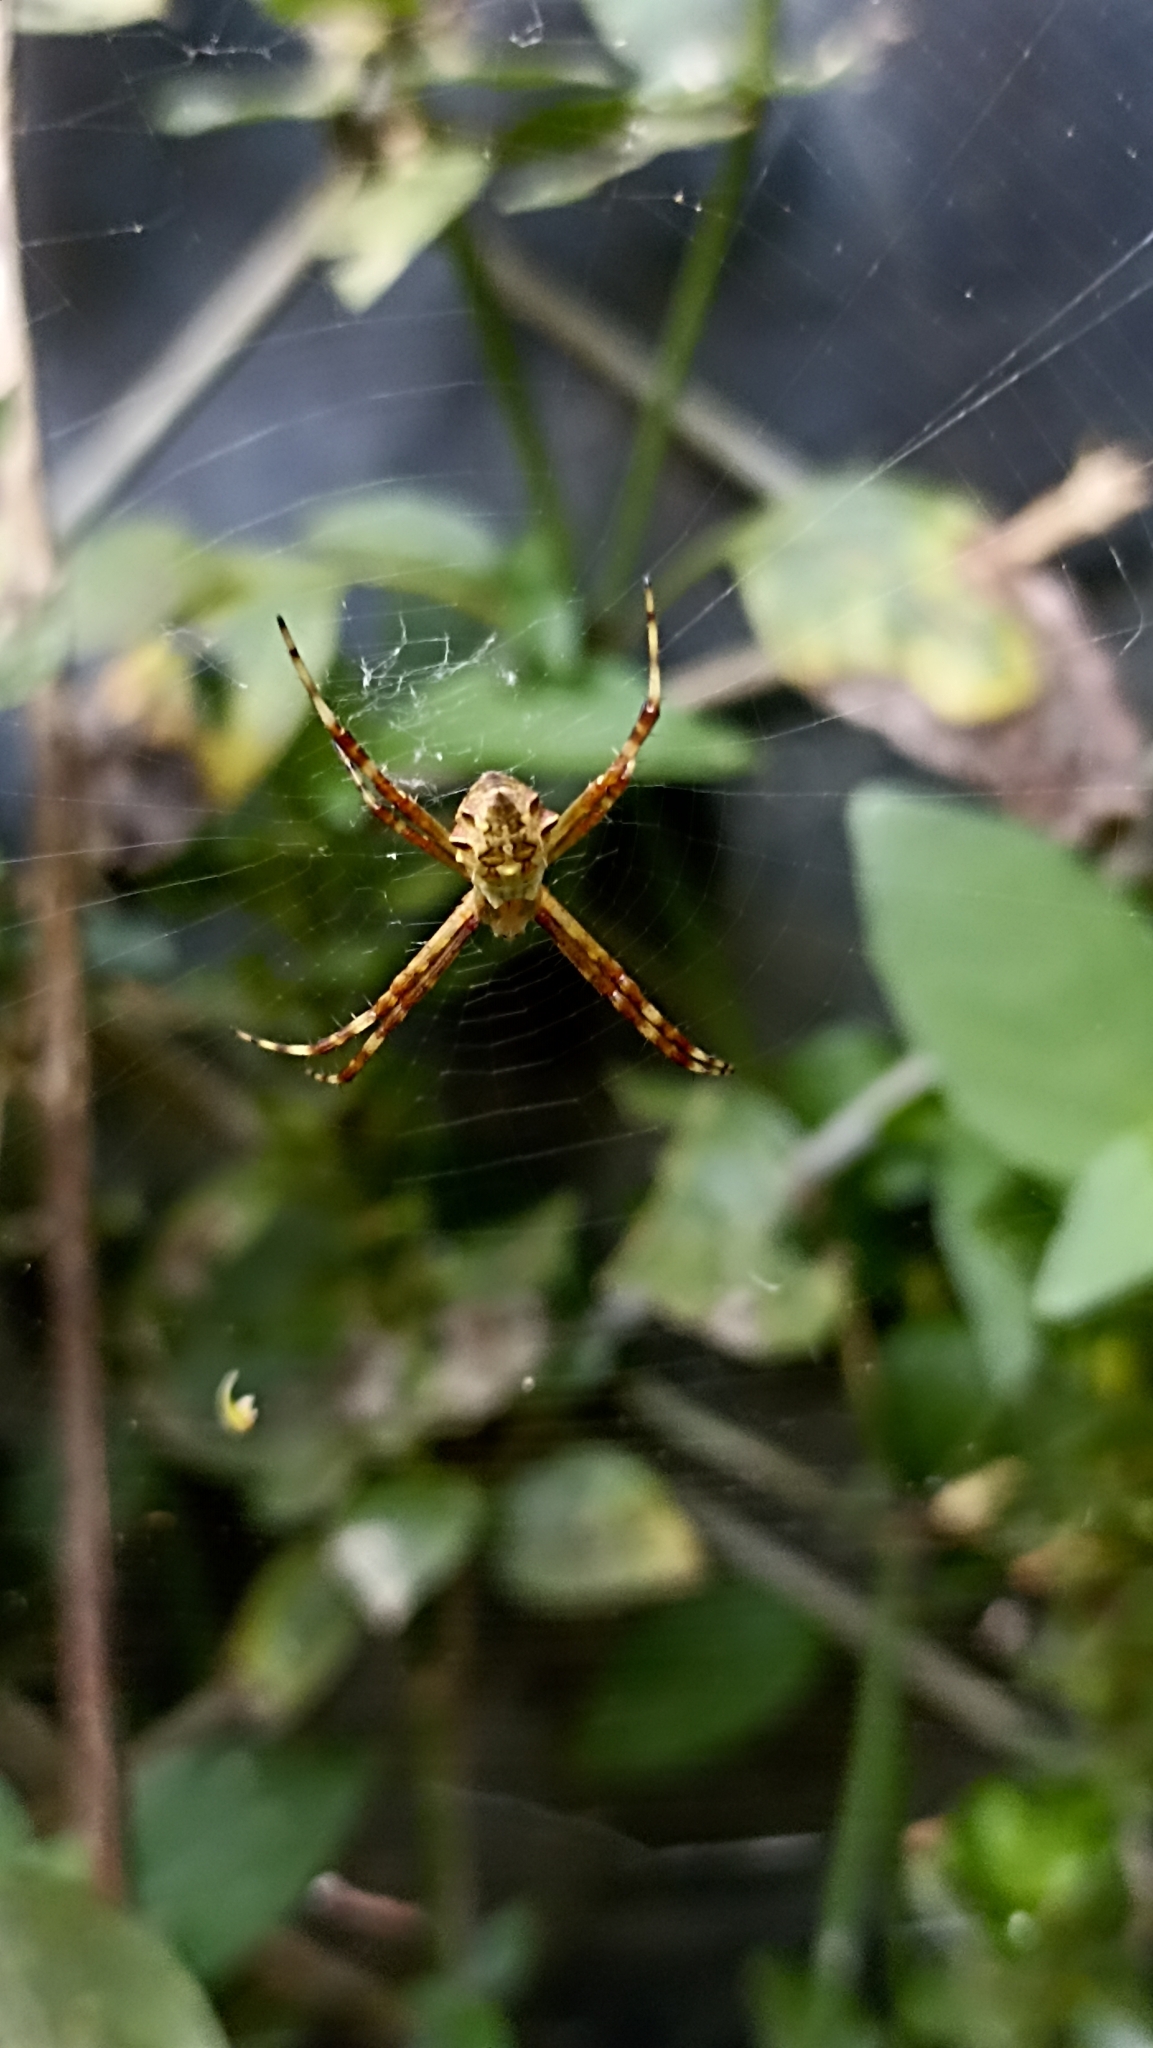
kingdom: Animalia
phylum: Arthropoda
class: Arachnida
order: Araneae
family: Araneidae
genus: Argiope
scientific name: Argiope argentata
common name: Orb weavers
